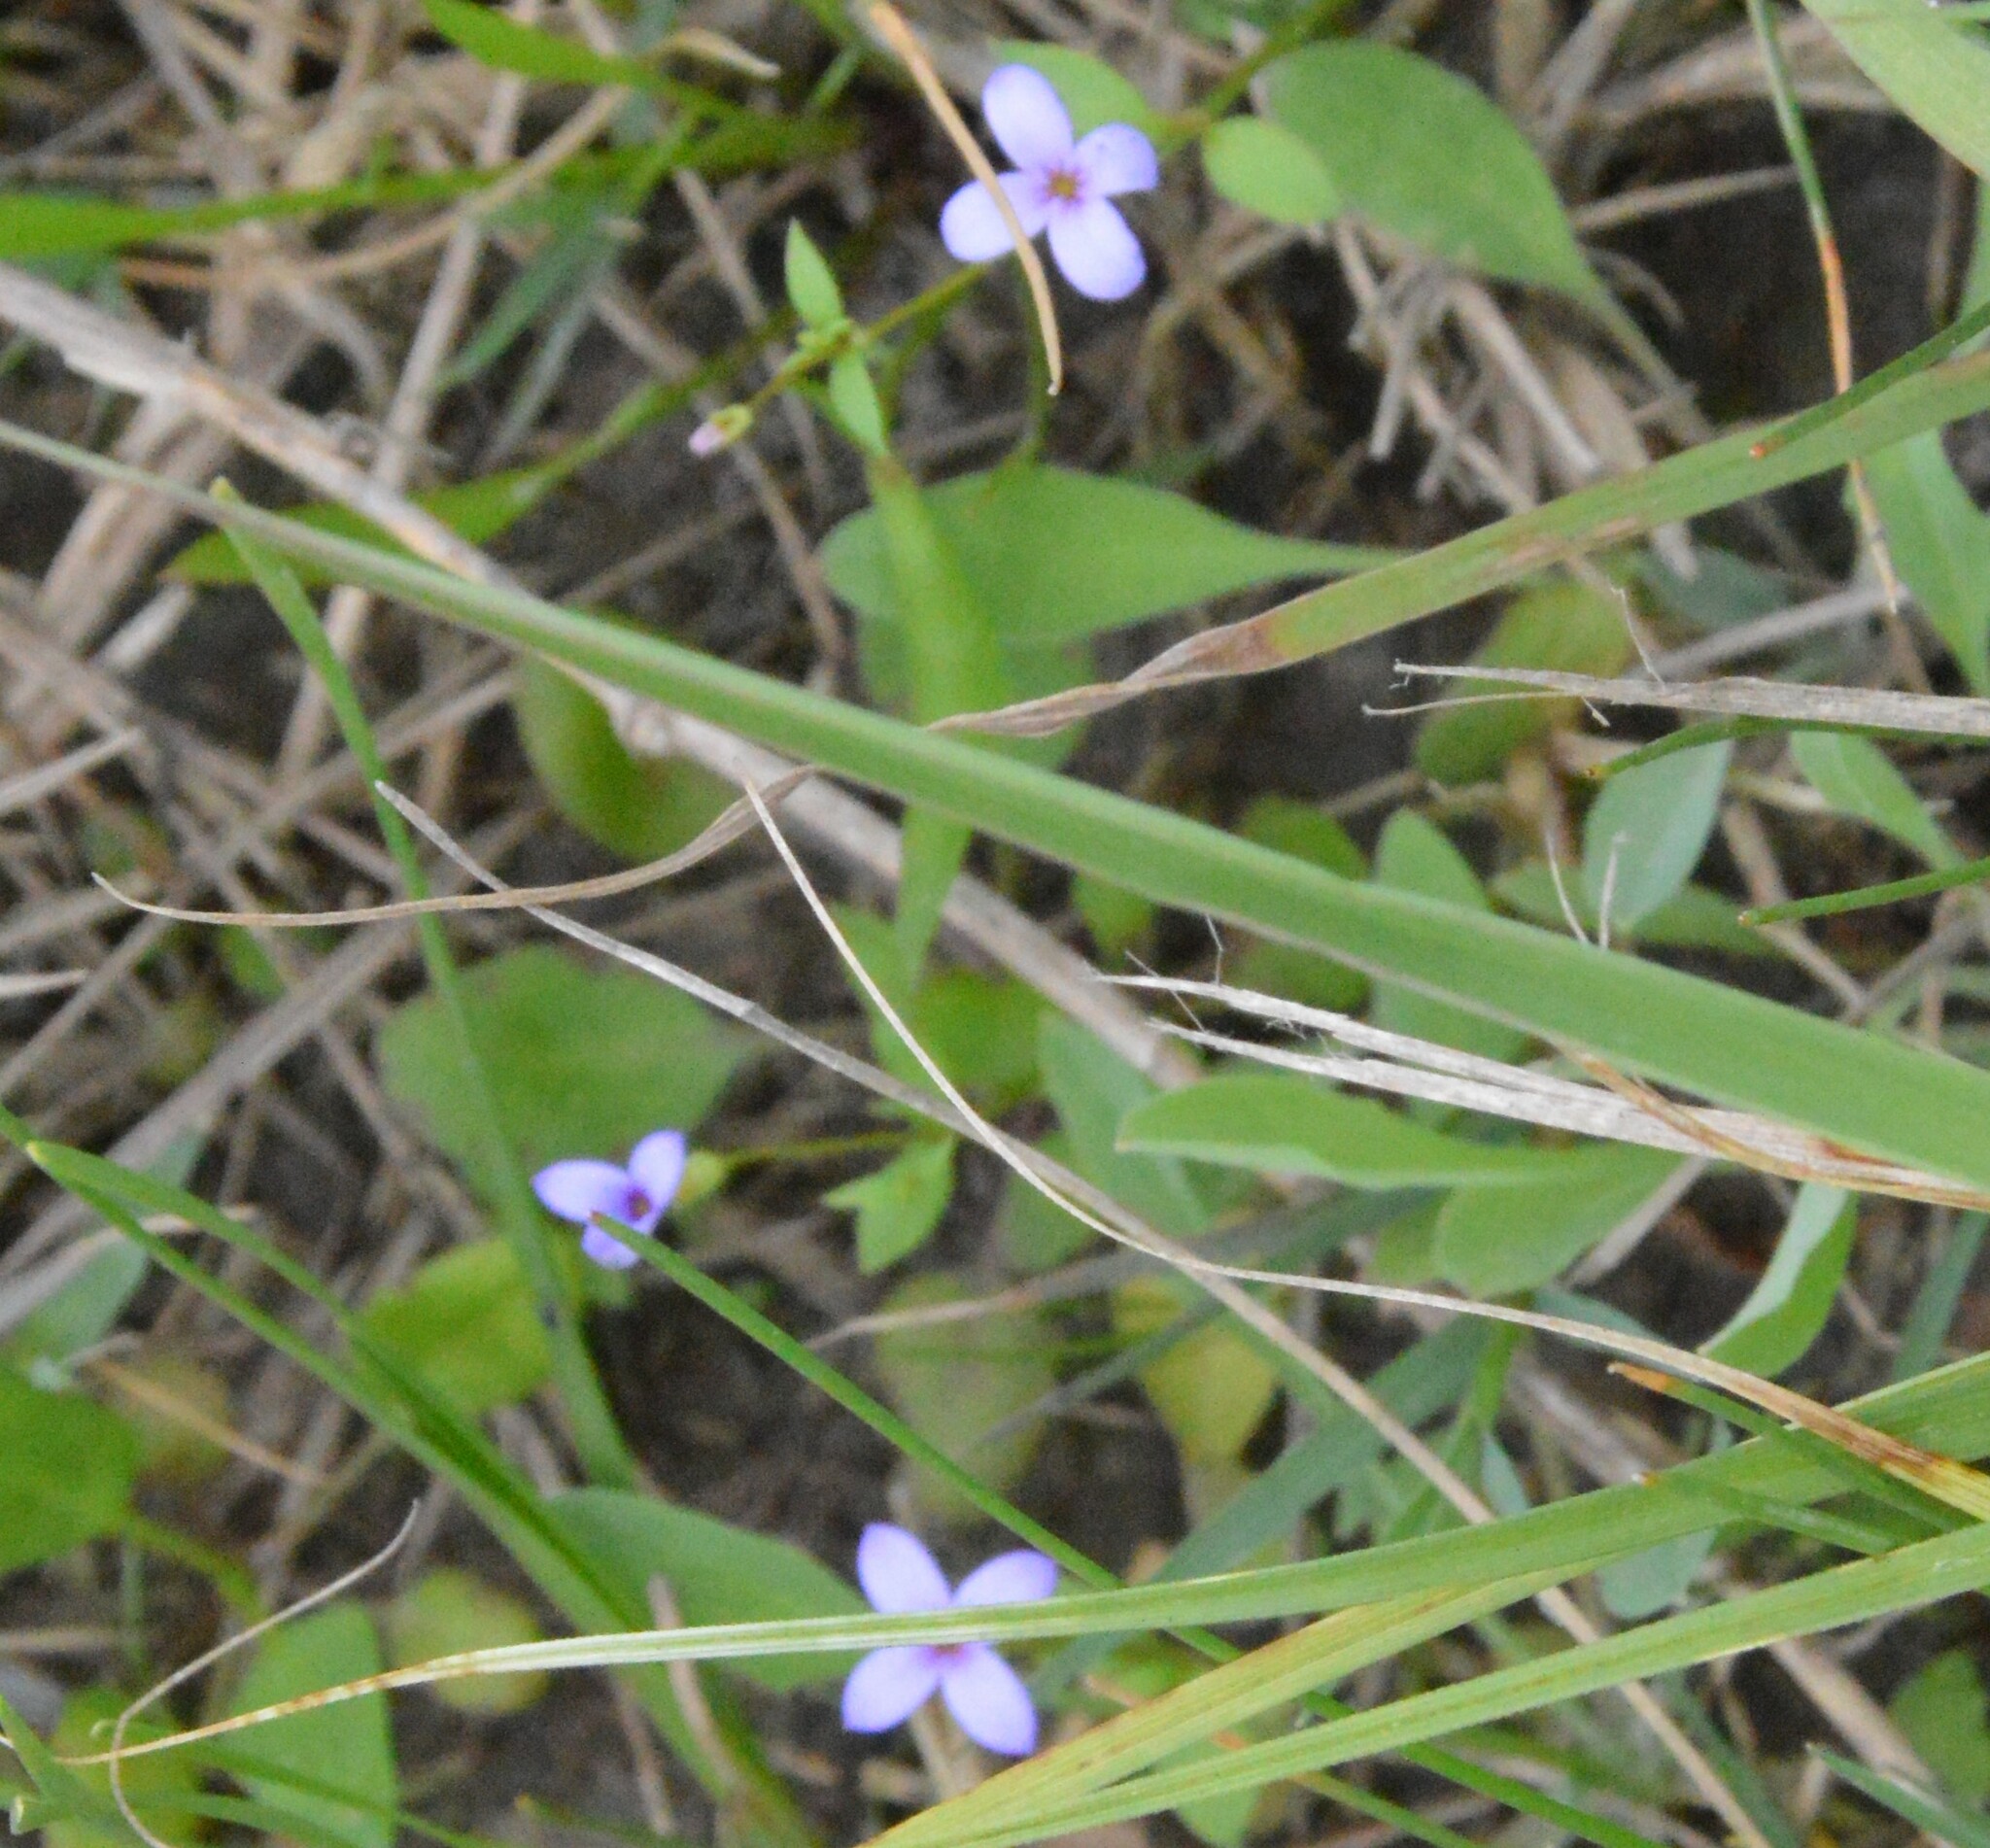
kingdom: Plantae
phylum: Tracheophyta
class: Magnoliopsida
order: Gentianales
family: Rubiaceae
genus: Houstonia
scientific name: Houstonia pusilla
